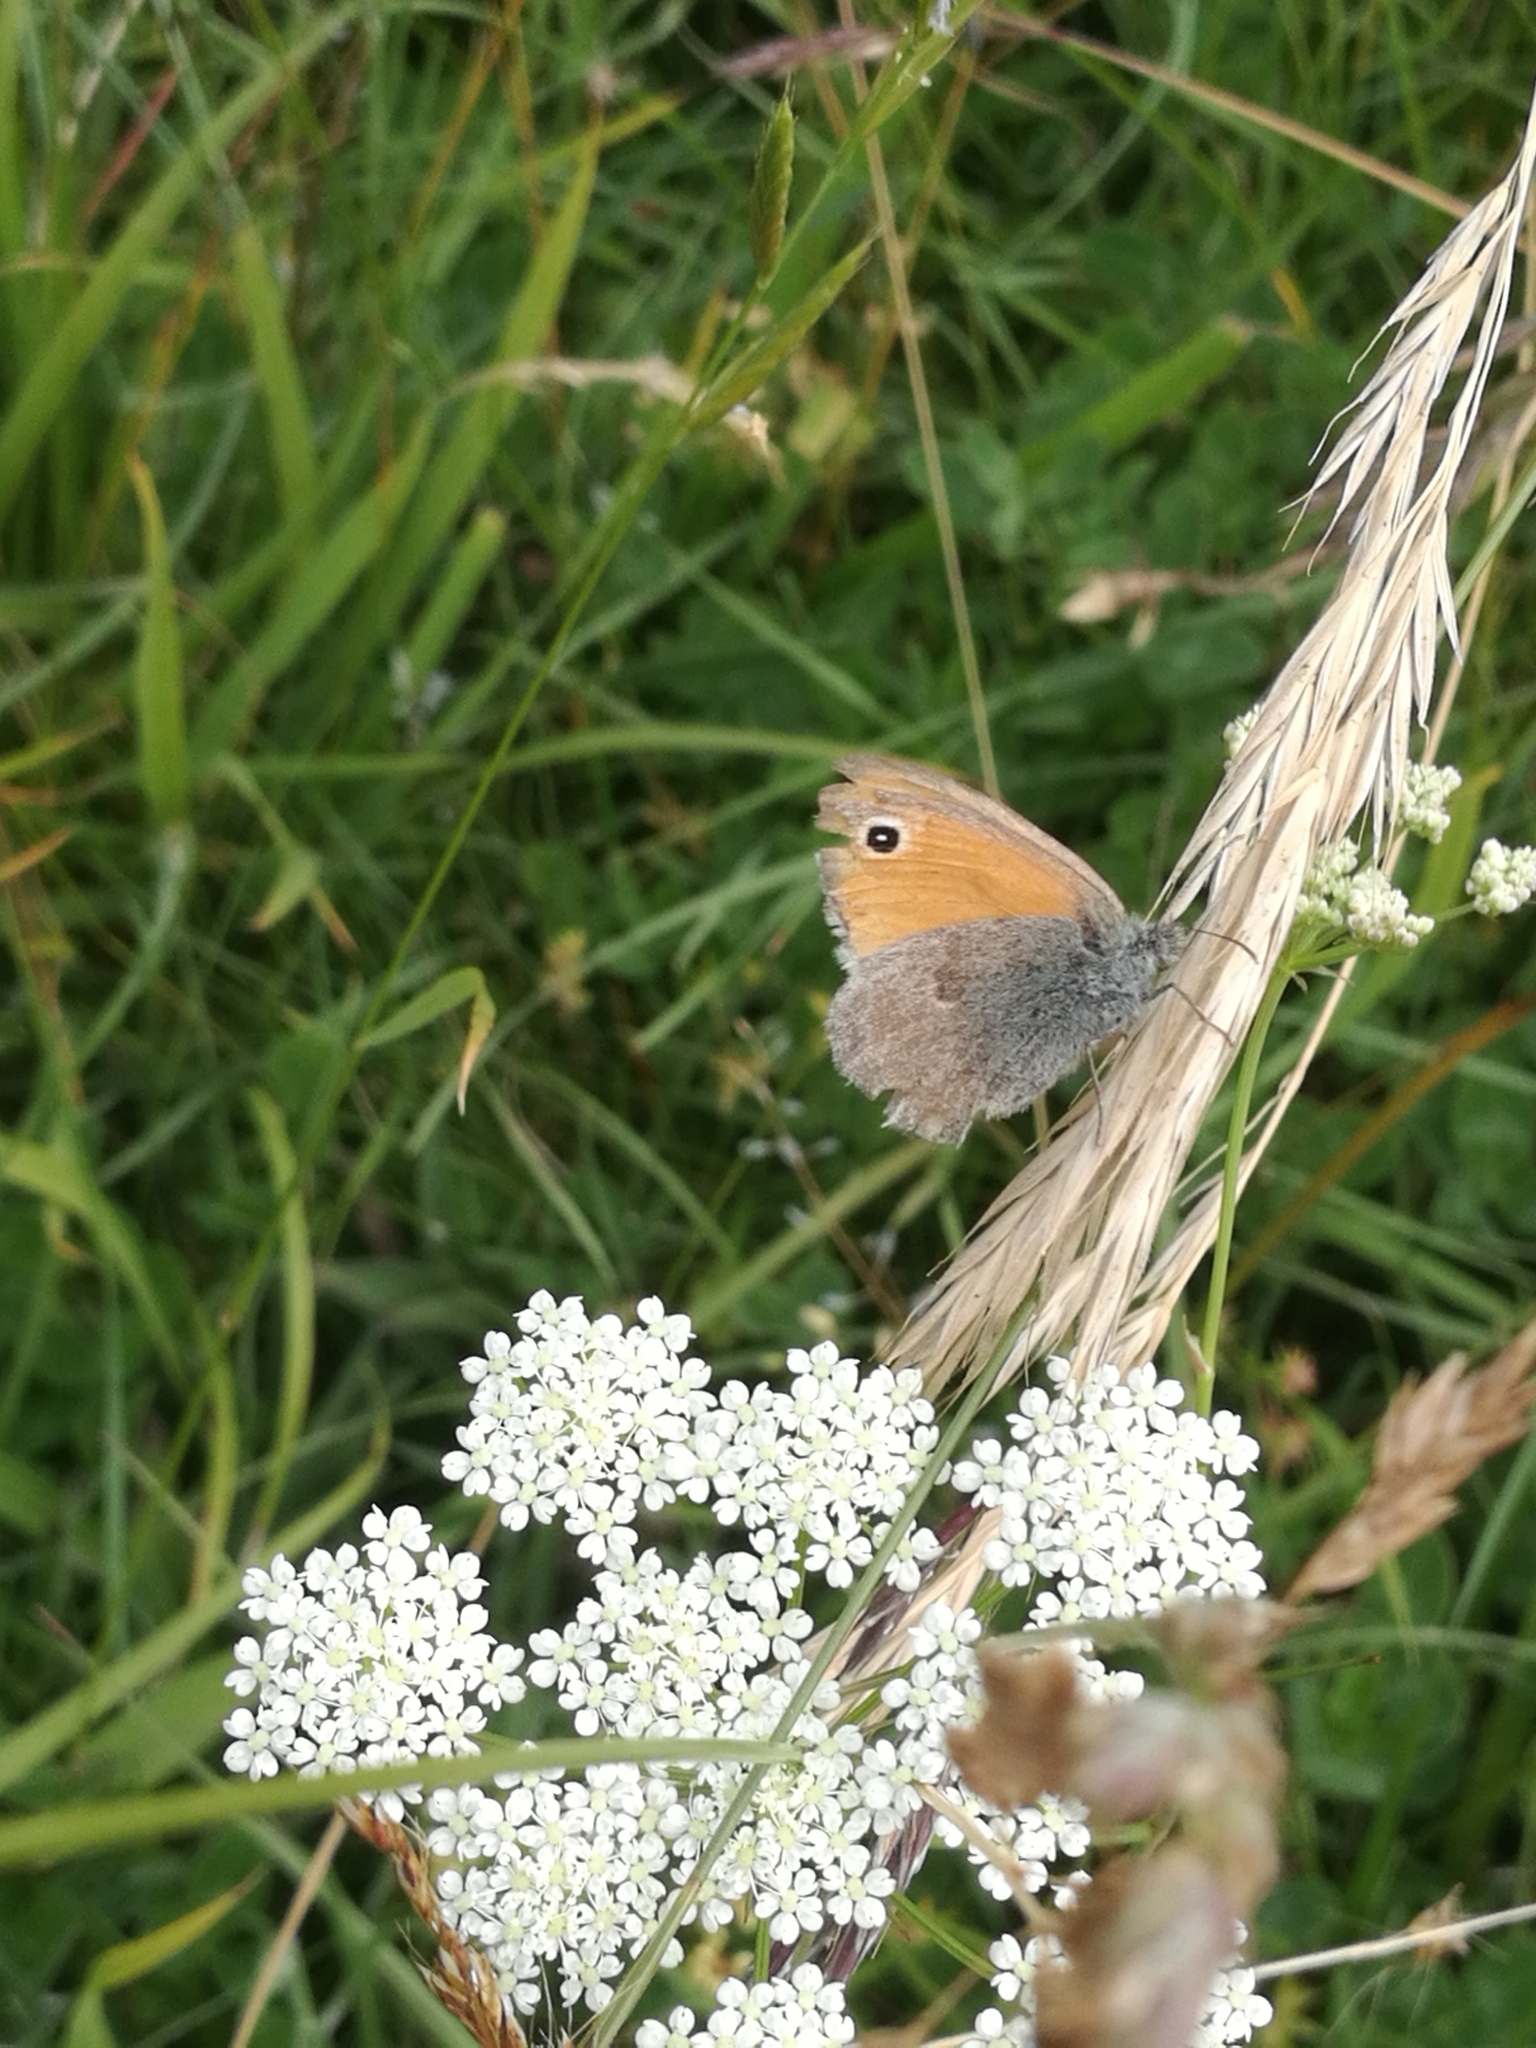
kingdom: Animalia
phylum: Arthropoda
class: Insecta
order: Lepidoptera
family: Nymphalidae
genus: Coenonympha
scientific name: Coenonympha pamphilus
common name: Small heath
